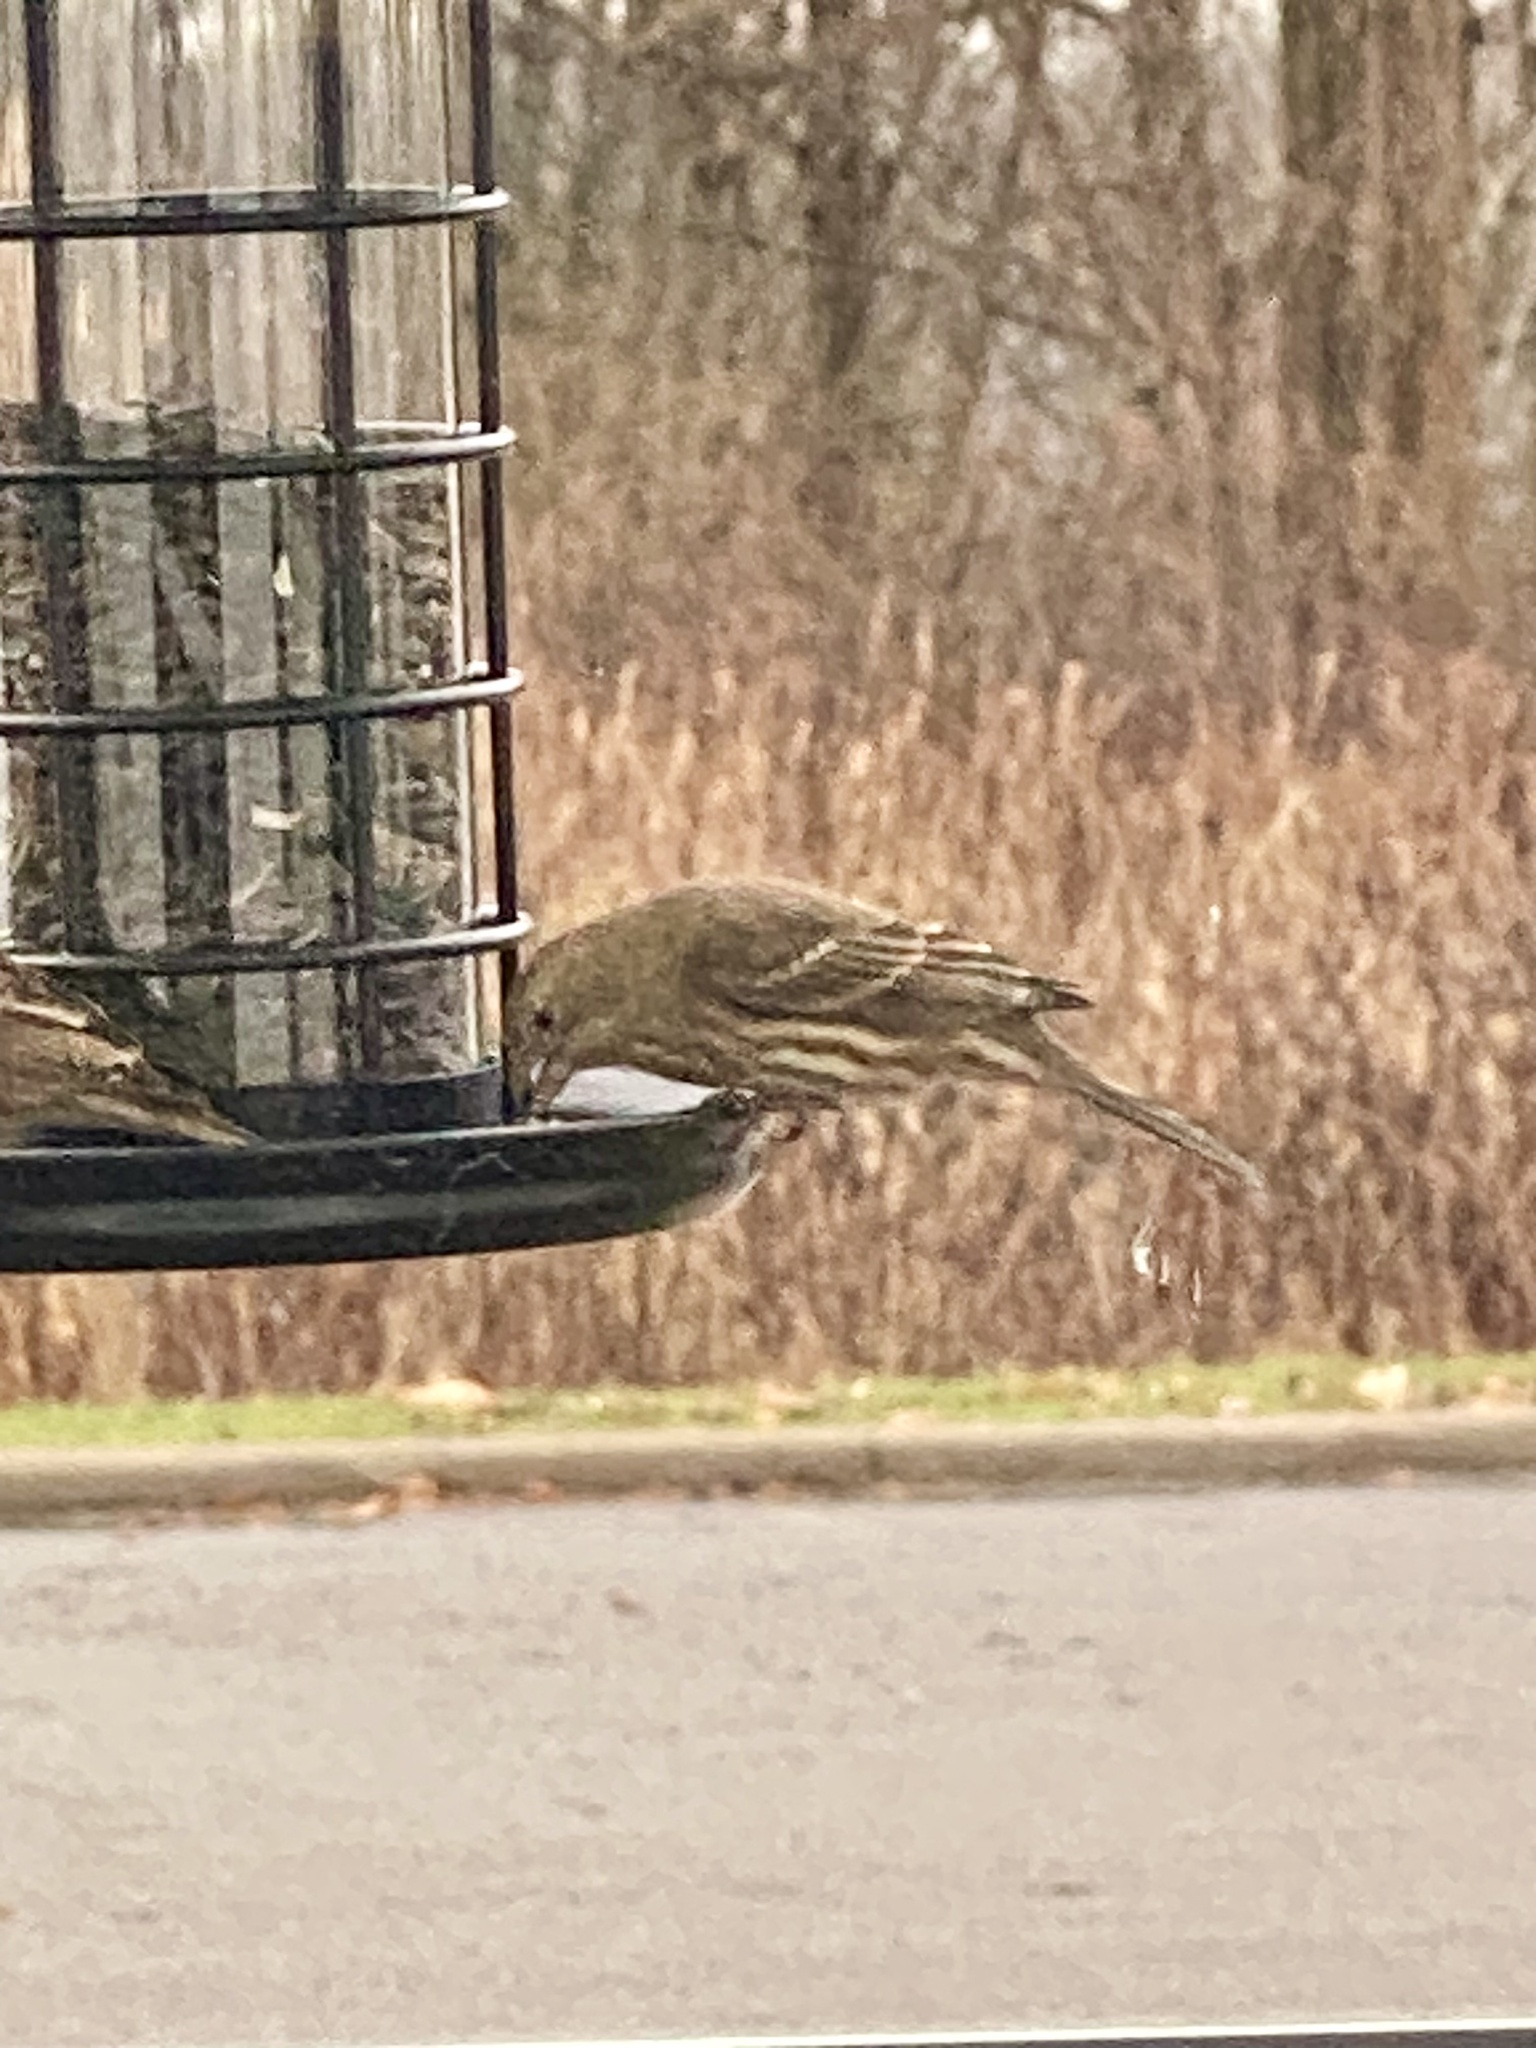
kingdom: Animalia
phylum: Chordata
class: Aves
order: Passeriformes
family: Fringillidae
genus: Haemorhous
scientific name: Haemorhous mexicanus
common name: House finch
